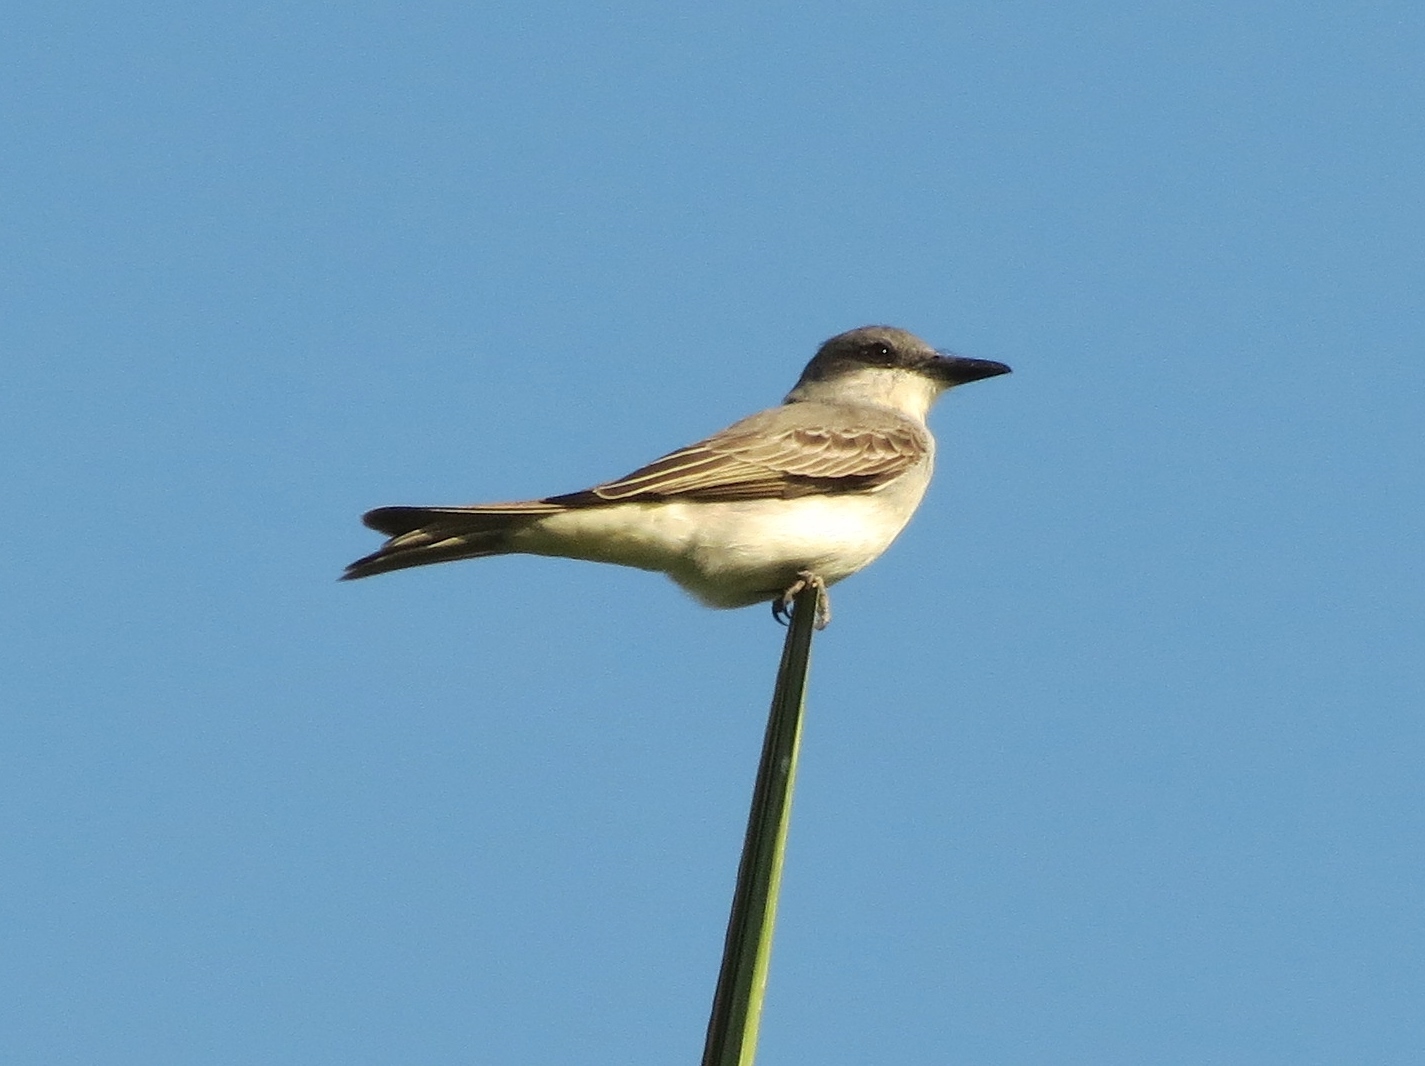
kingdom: Animalia
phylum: Chordata
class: Aves
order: Passeriformes
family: Tyrannidae
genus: Tyrannus
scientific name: Tyrannus dominicensis
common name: Gray kingbird
